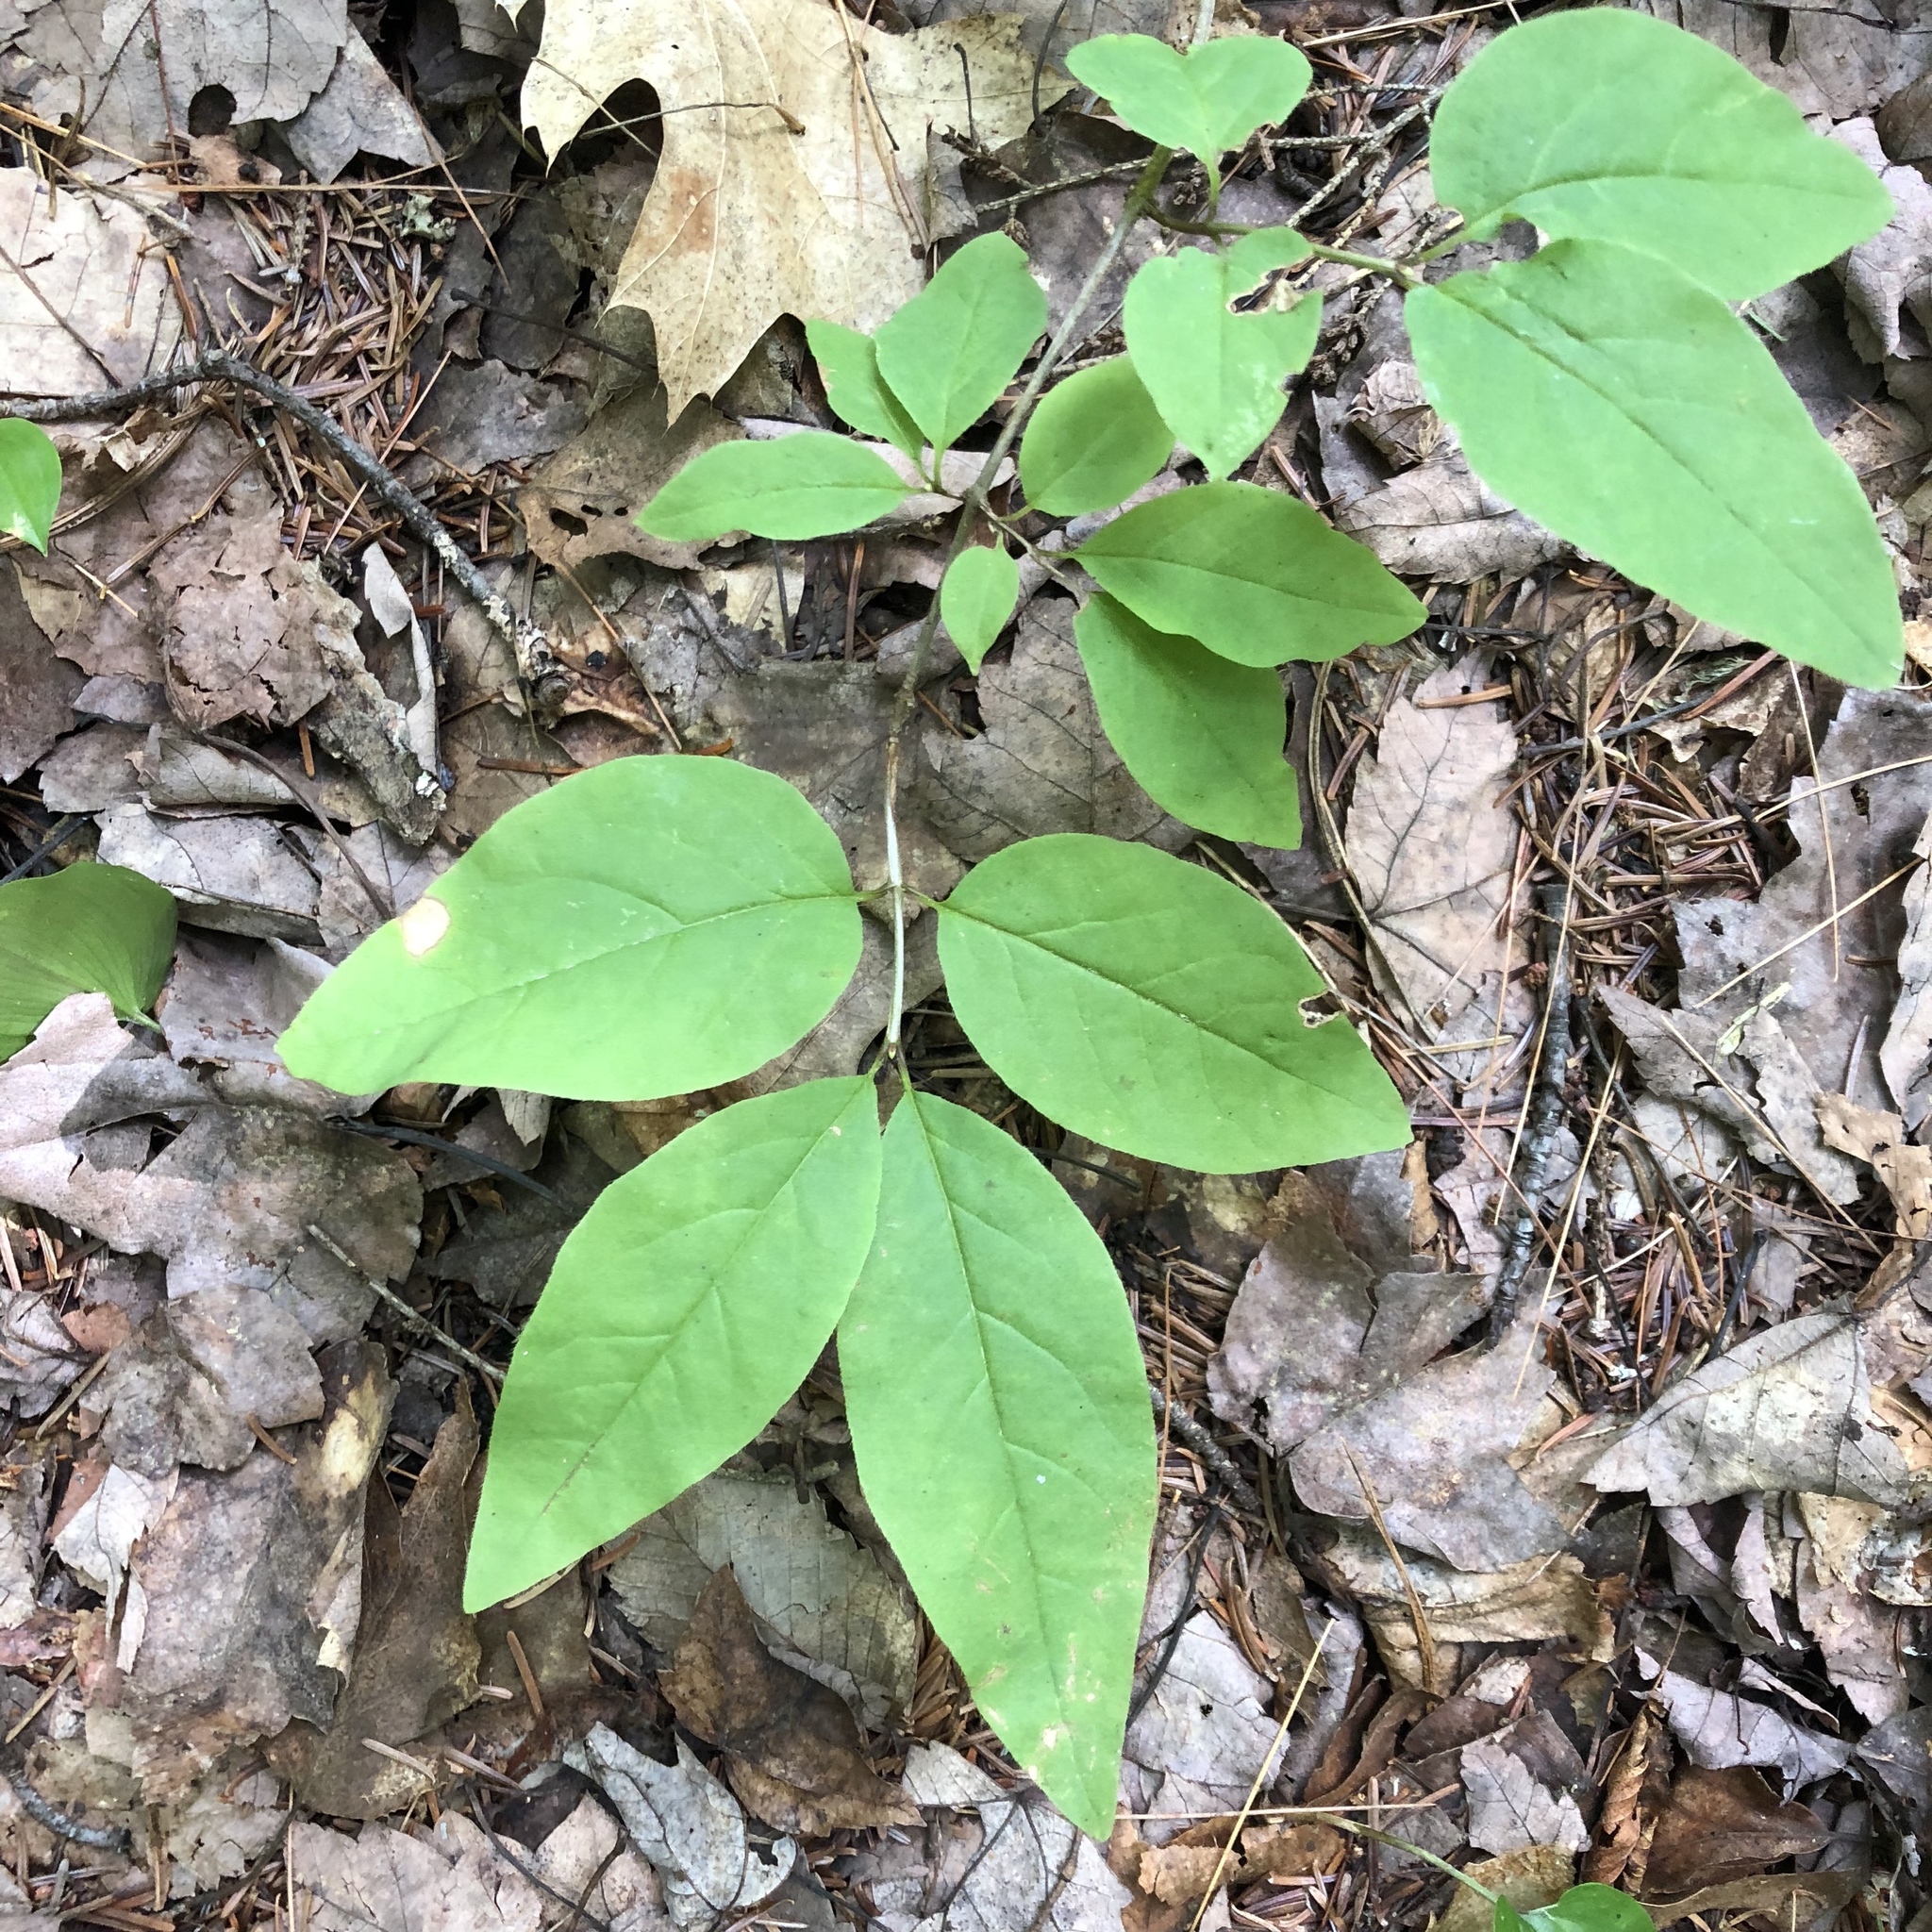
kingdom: Plantae
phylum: Tracheophyta
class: Magnoliopsida
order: Dipsacales
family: Caprifoliaceae
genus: Lonicera
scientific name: Lonicera canadensis
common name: American fly-honeysuckle
